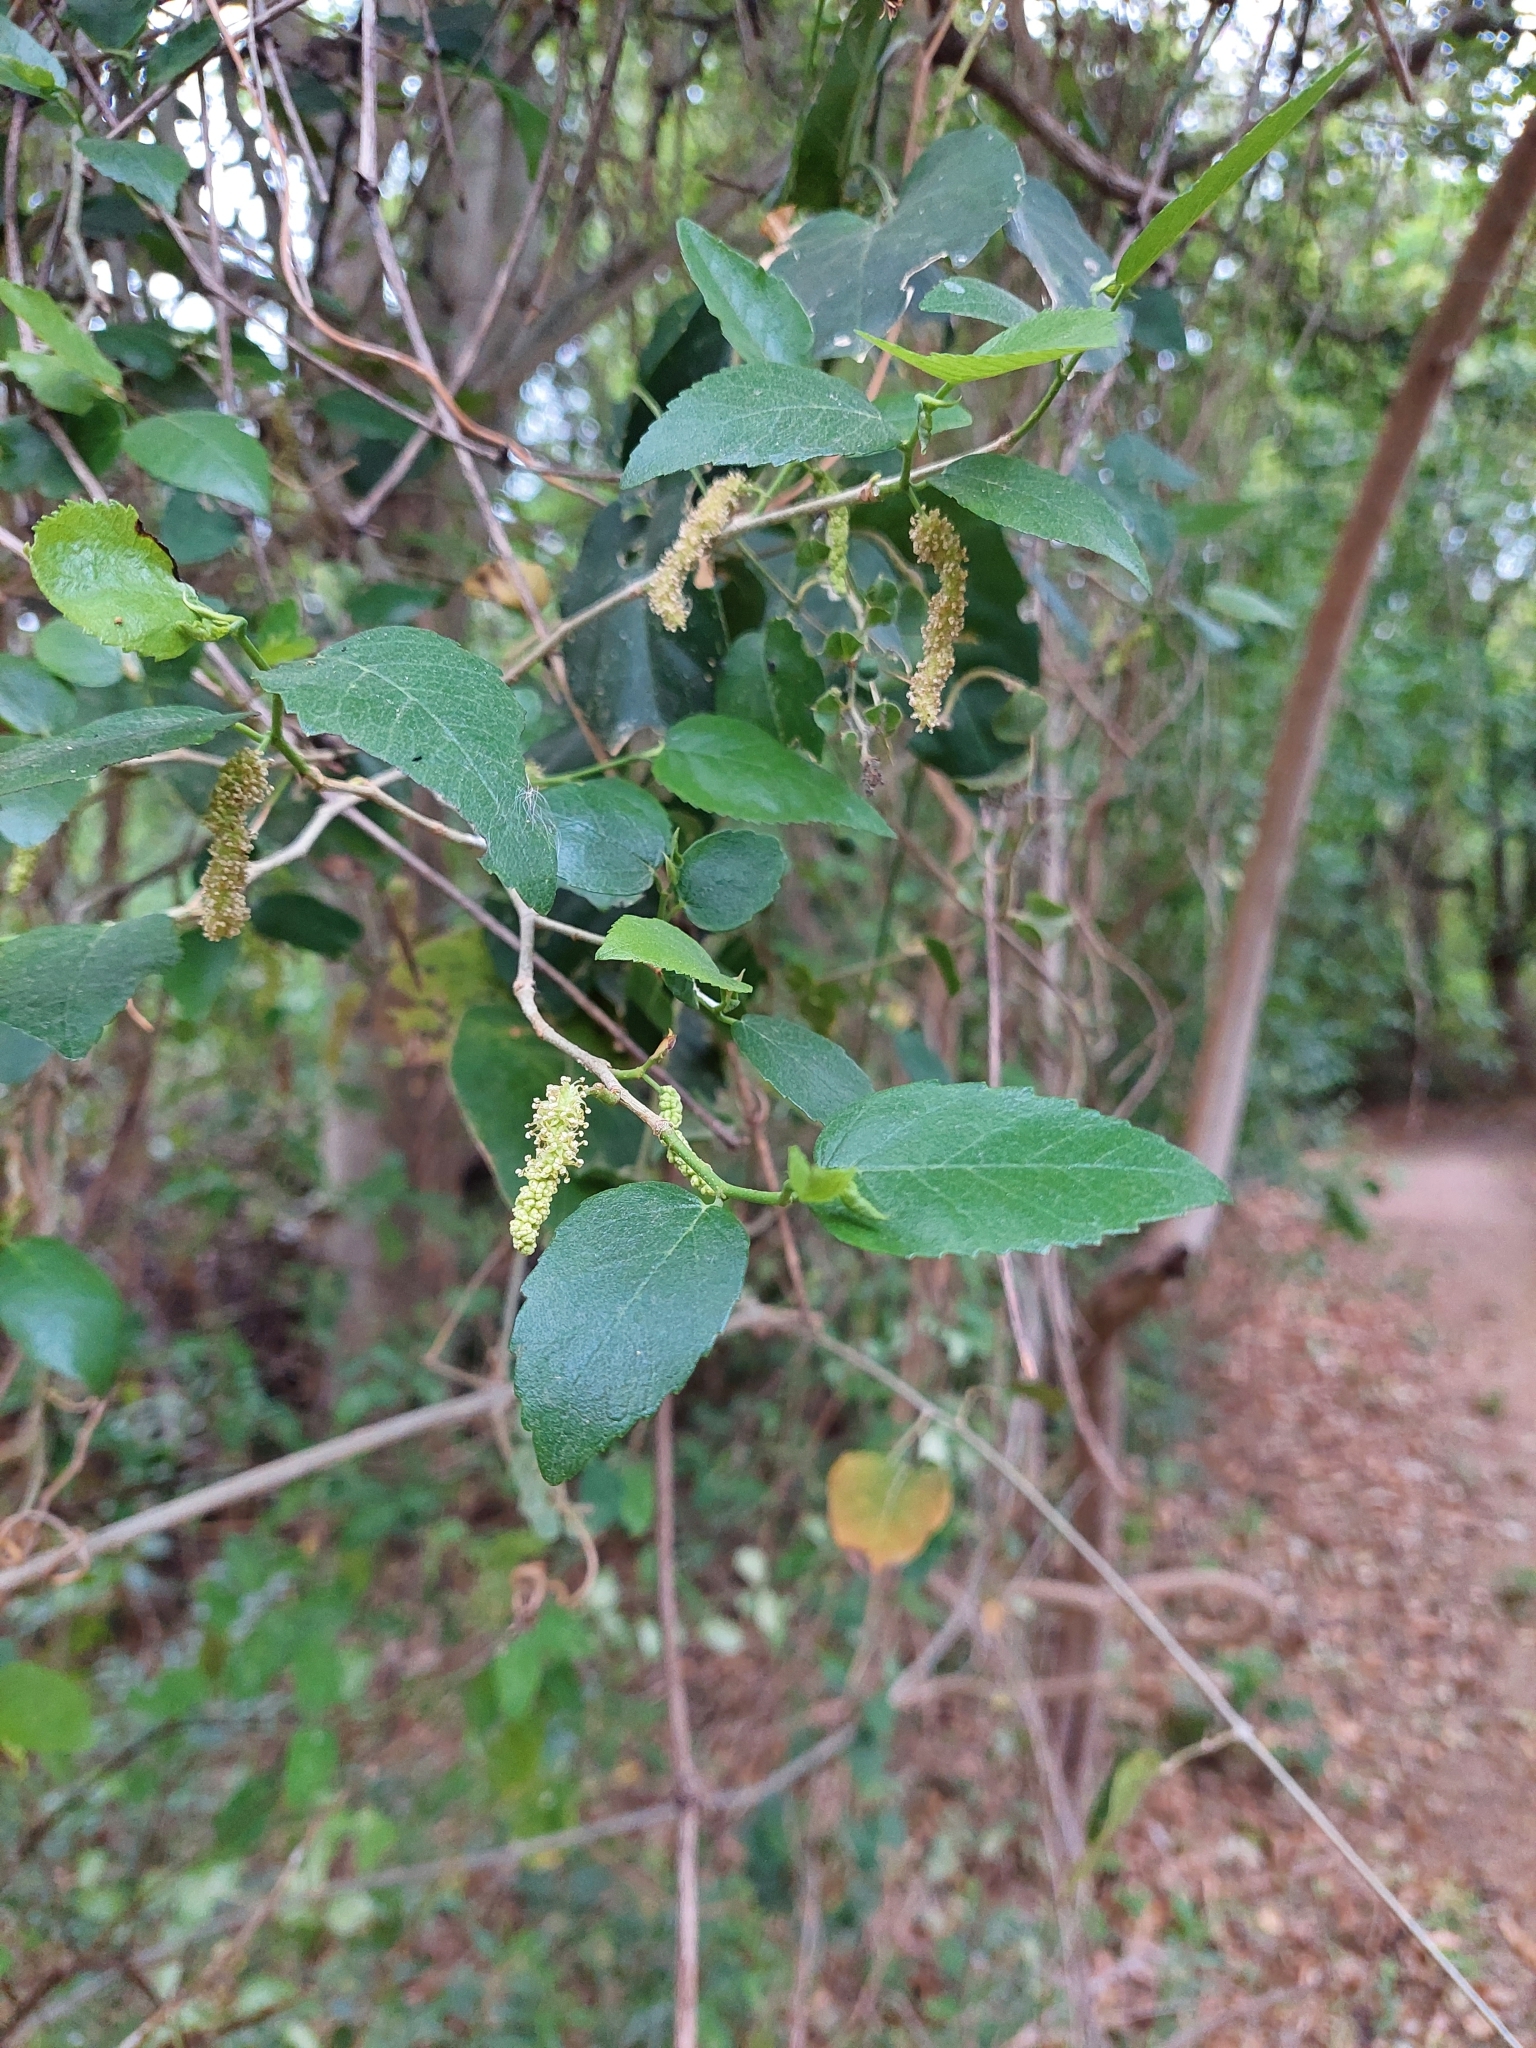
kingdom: Plantae
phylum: Tracheophyta
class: Magnoliopsida
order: Rosales
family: Moraceae
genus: Maclura
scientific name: Maclura tinctoria
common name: Old fustic
